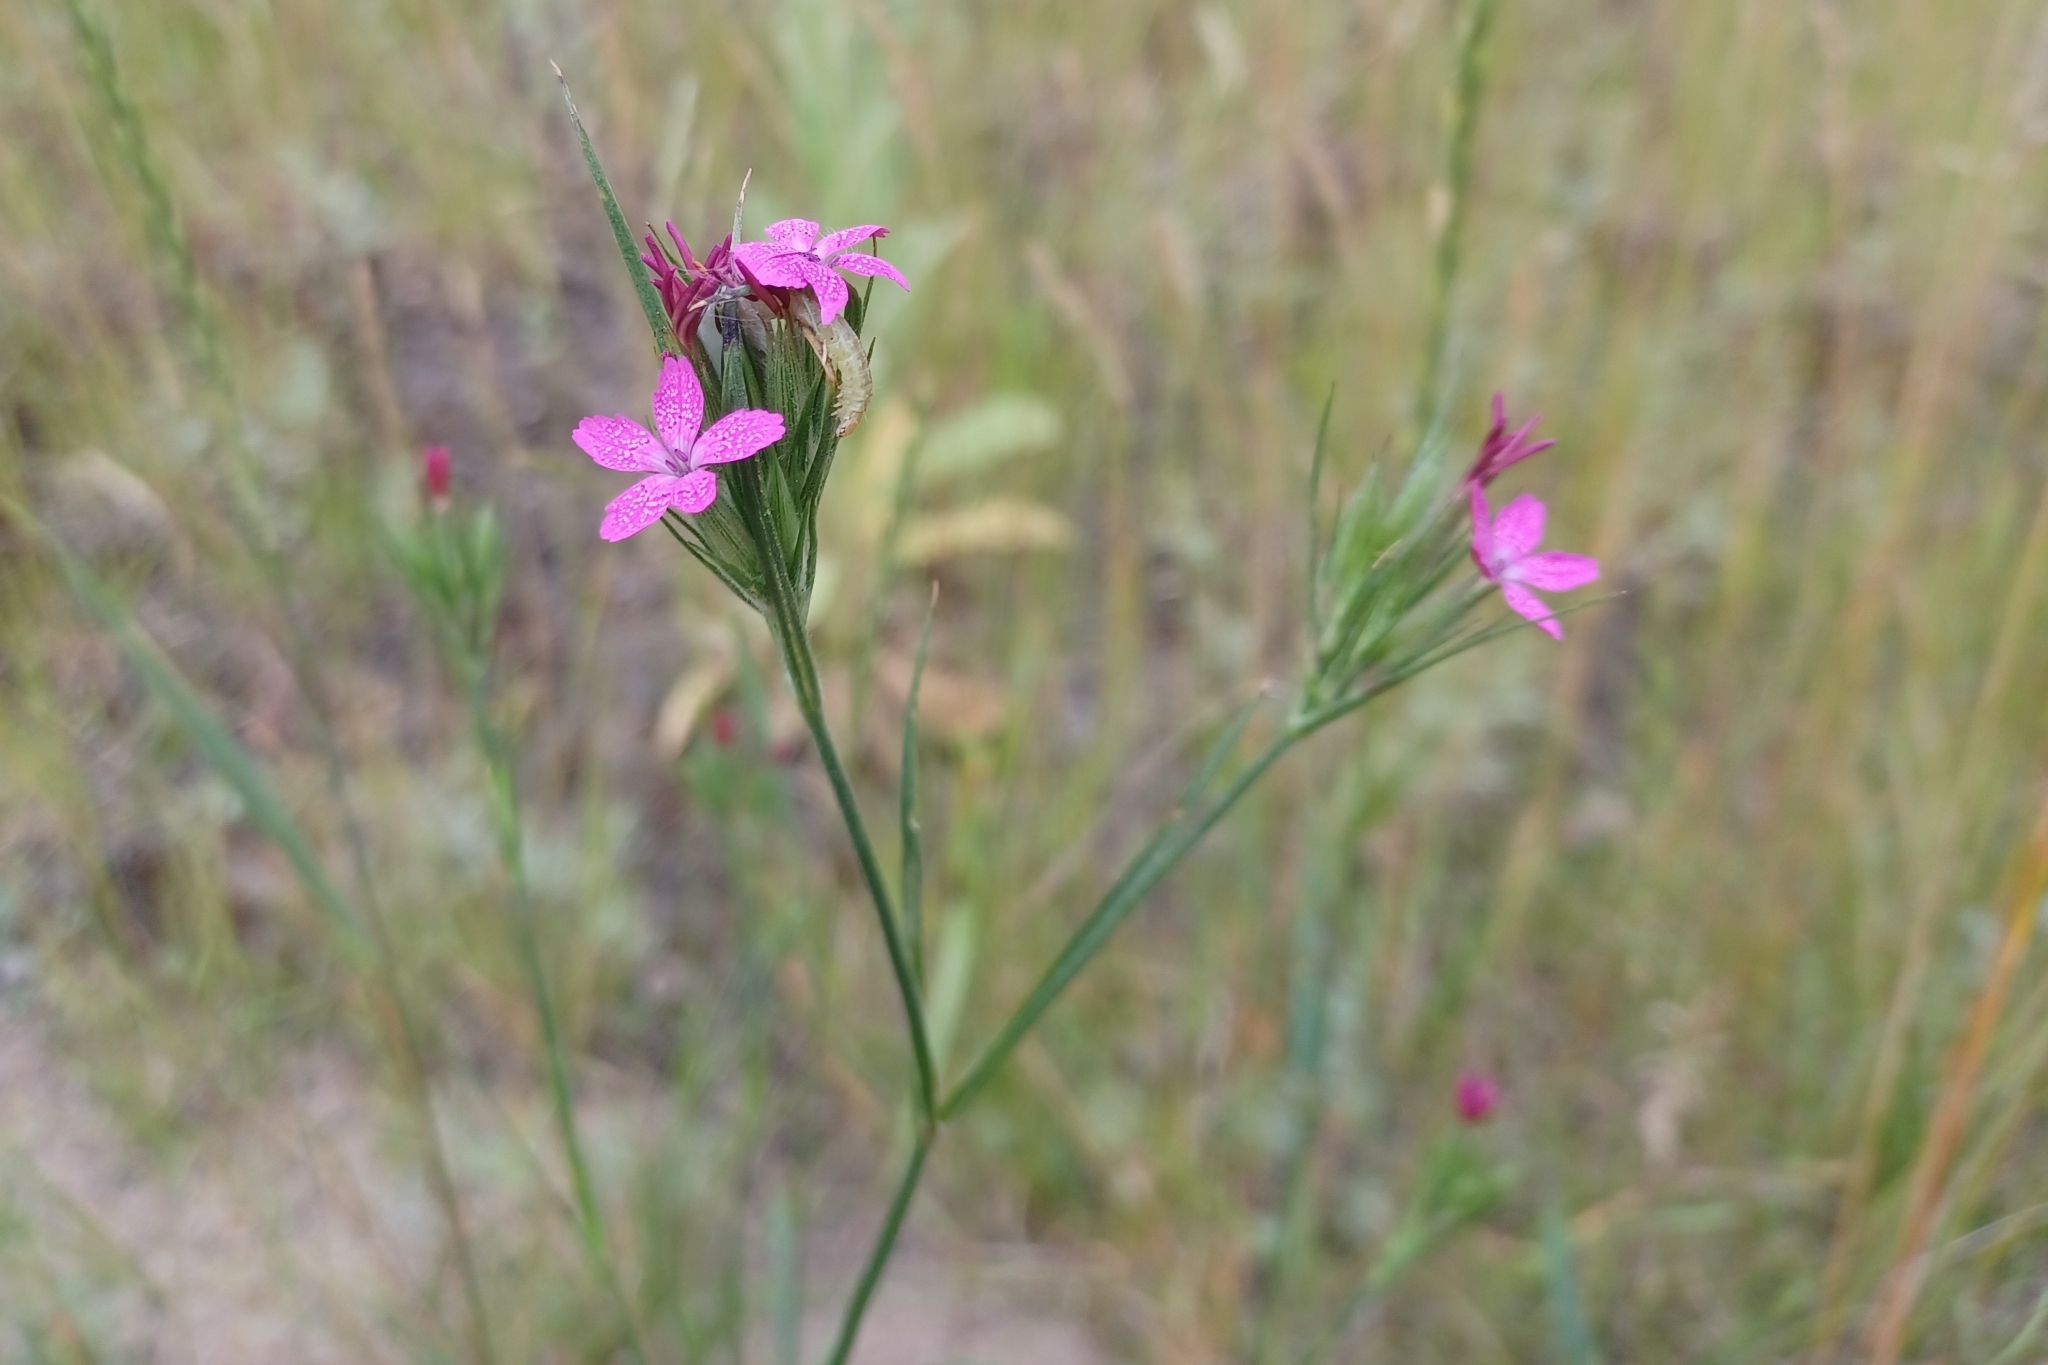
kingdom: Plantae
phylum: Tracheophyta
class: Magnoliopsida
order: Caryophyllales
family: Caryophyllaceae
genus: Dianthus
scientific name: Dianthus armeria
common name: Deptford pink
